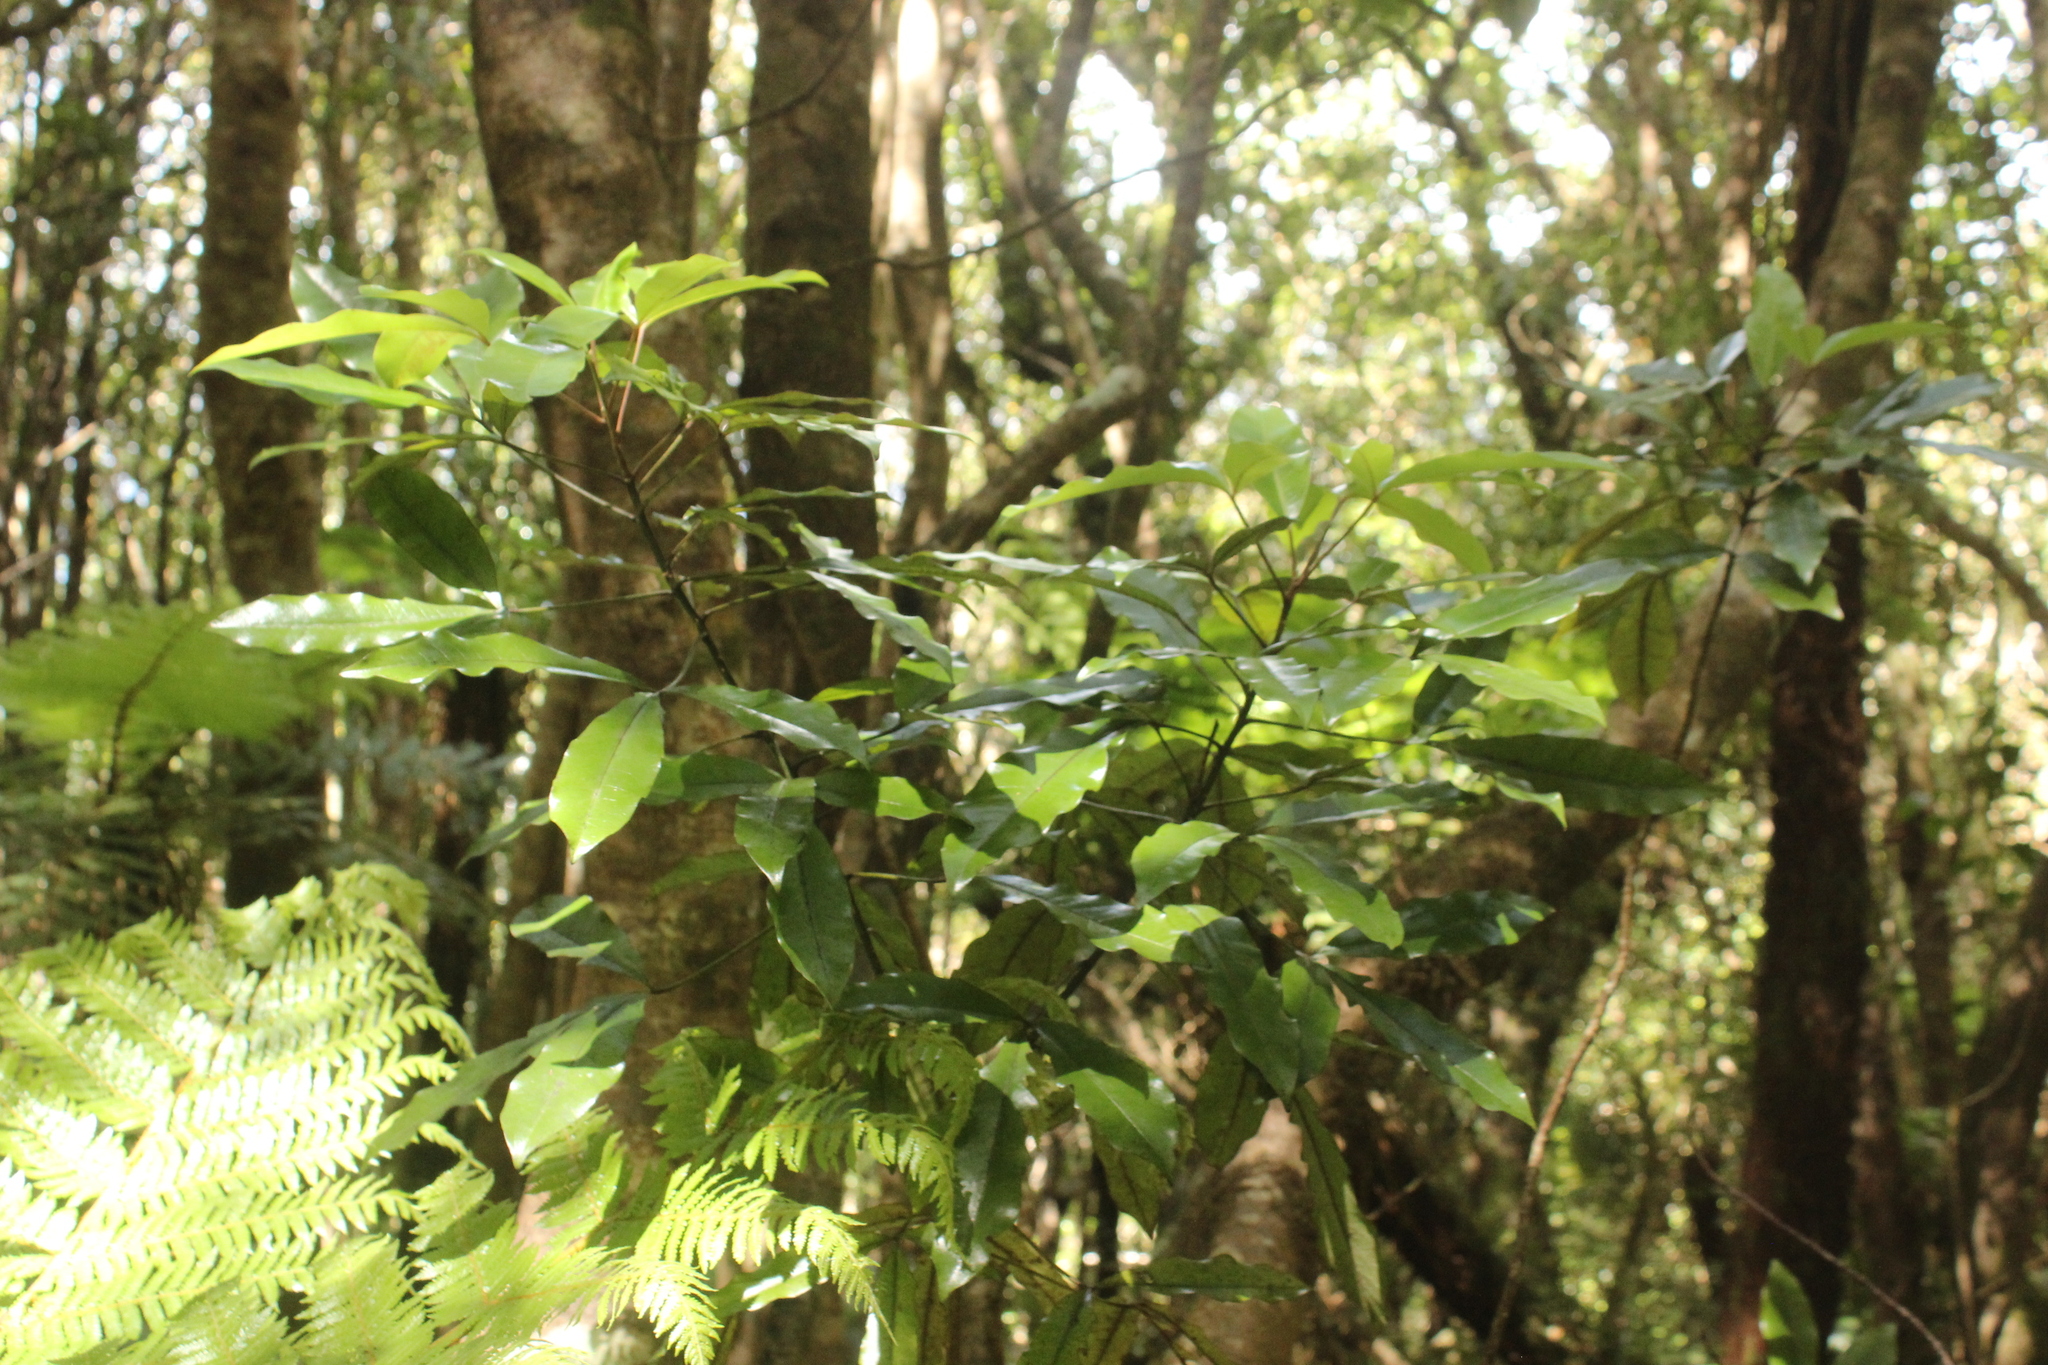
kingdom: Plantae
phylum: Tracheophyta
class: Magnoliopsida
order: Apiales
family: Araliaceae
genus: Raukaua
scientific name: Raukaua edgerleyi
